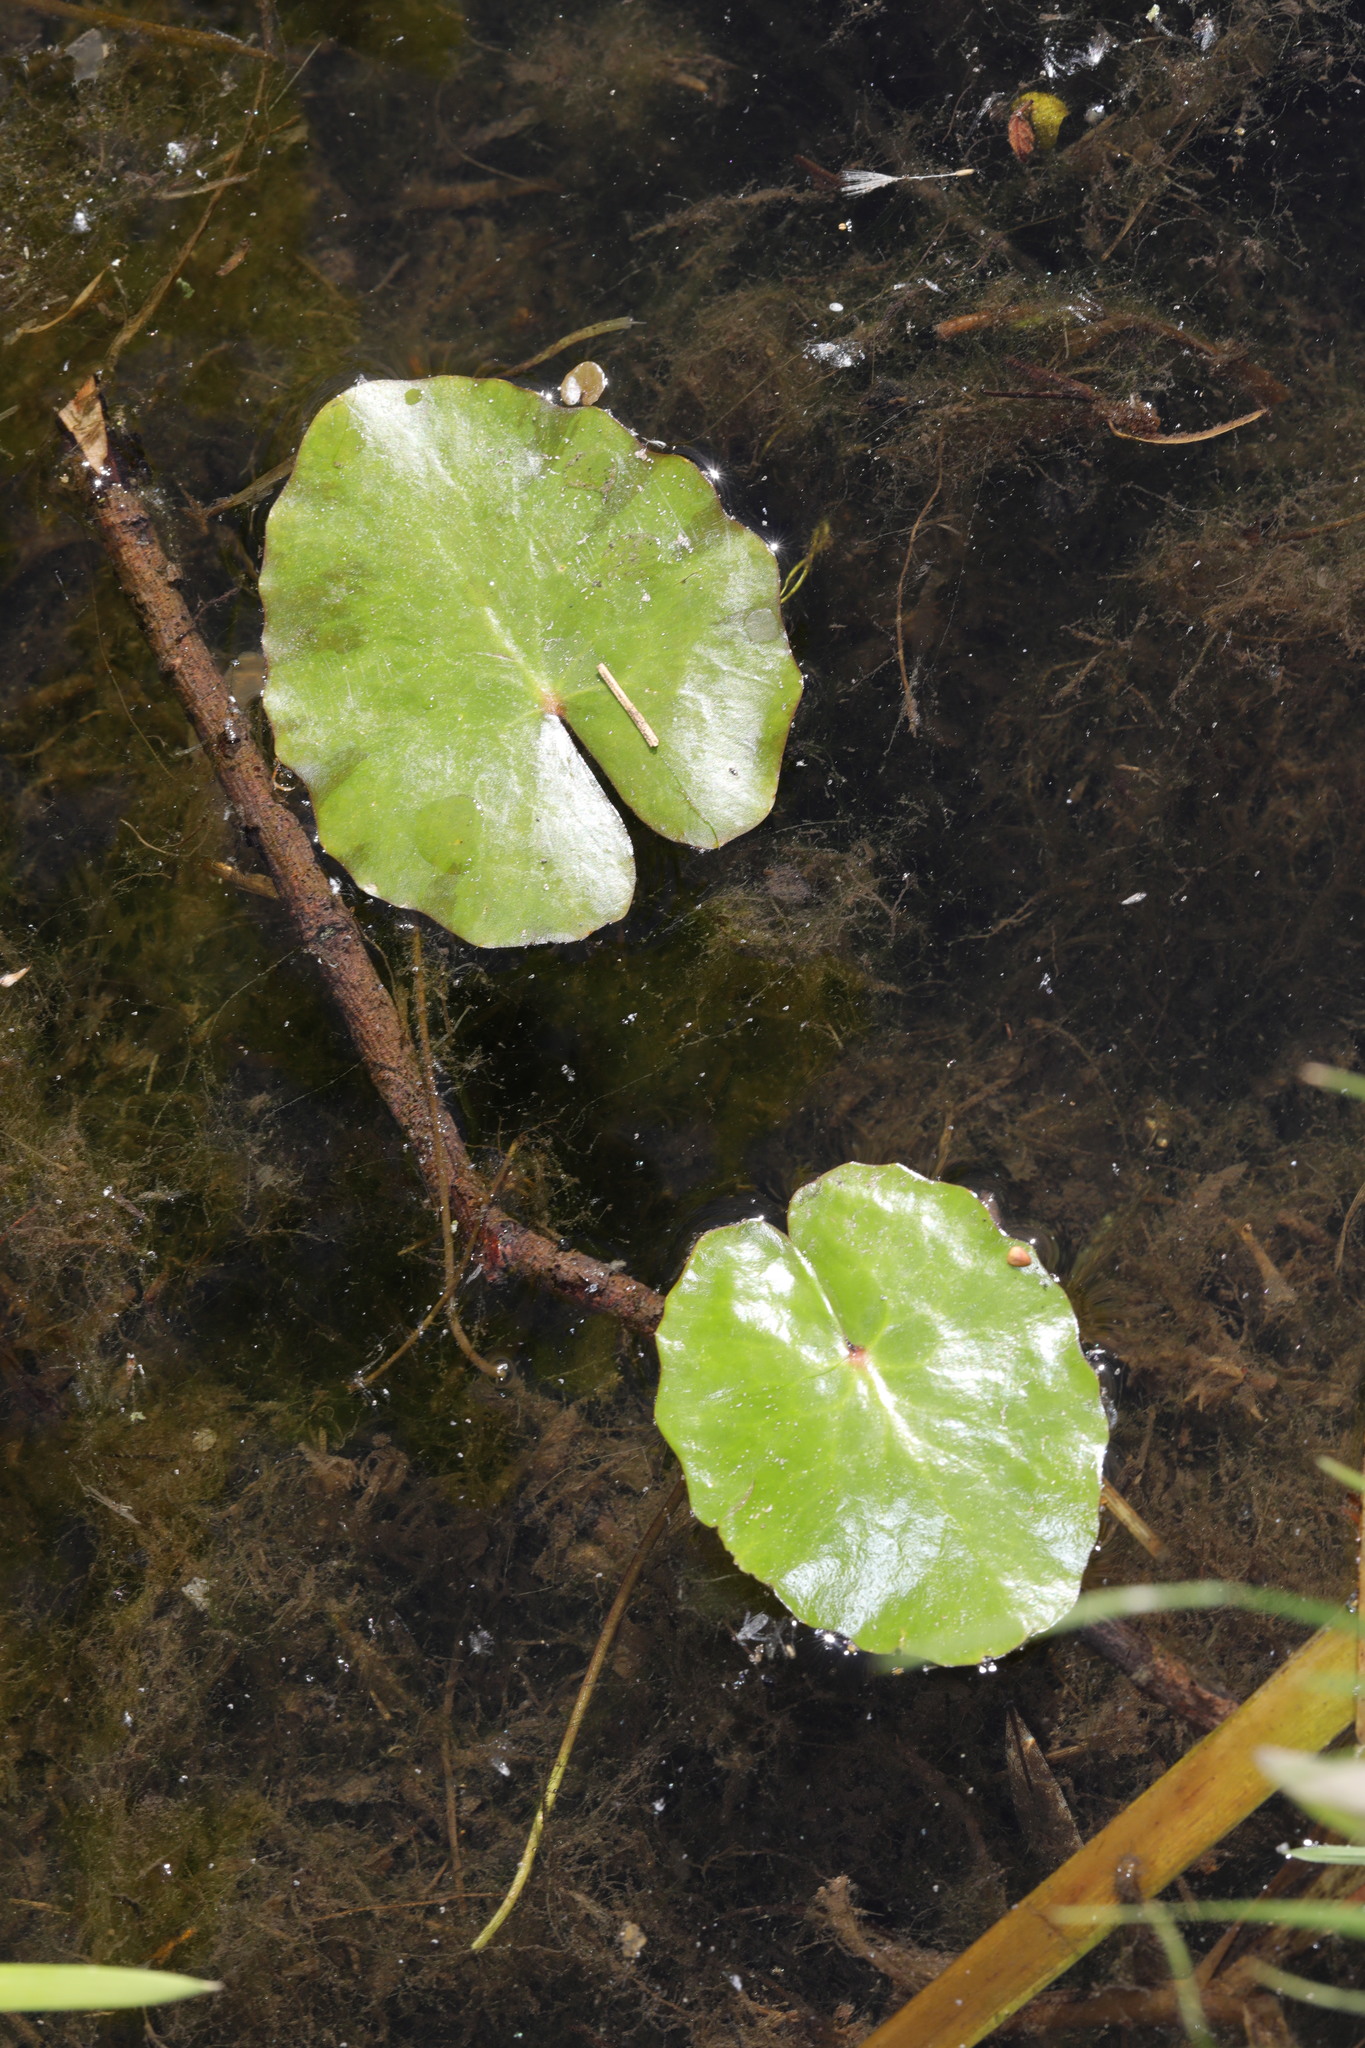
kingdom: Plantae
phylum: Tracheophyta
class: Magnoliopsida
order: Asterales
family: Menyanthaceae
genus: Nymphoides
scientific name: Nymphoides peltata
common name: Fringed water-lily
